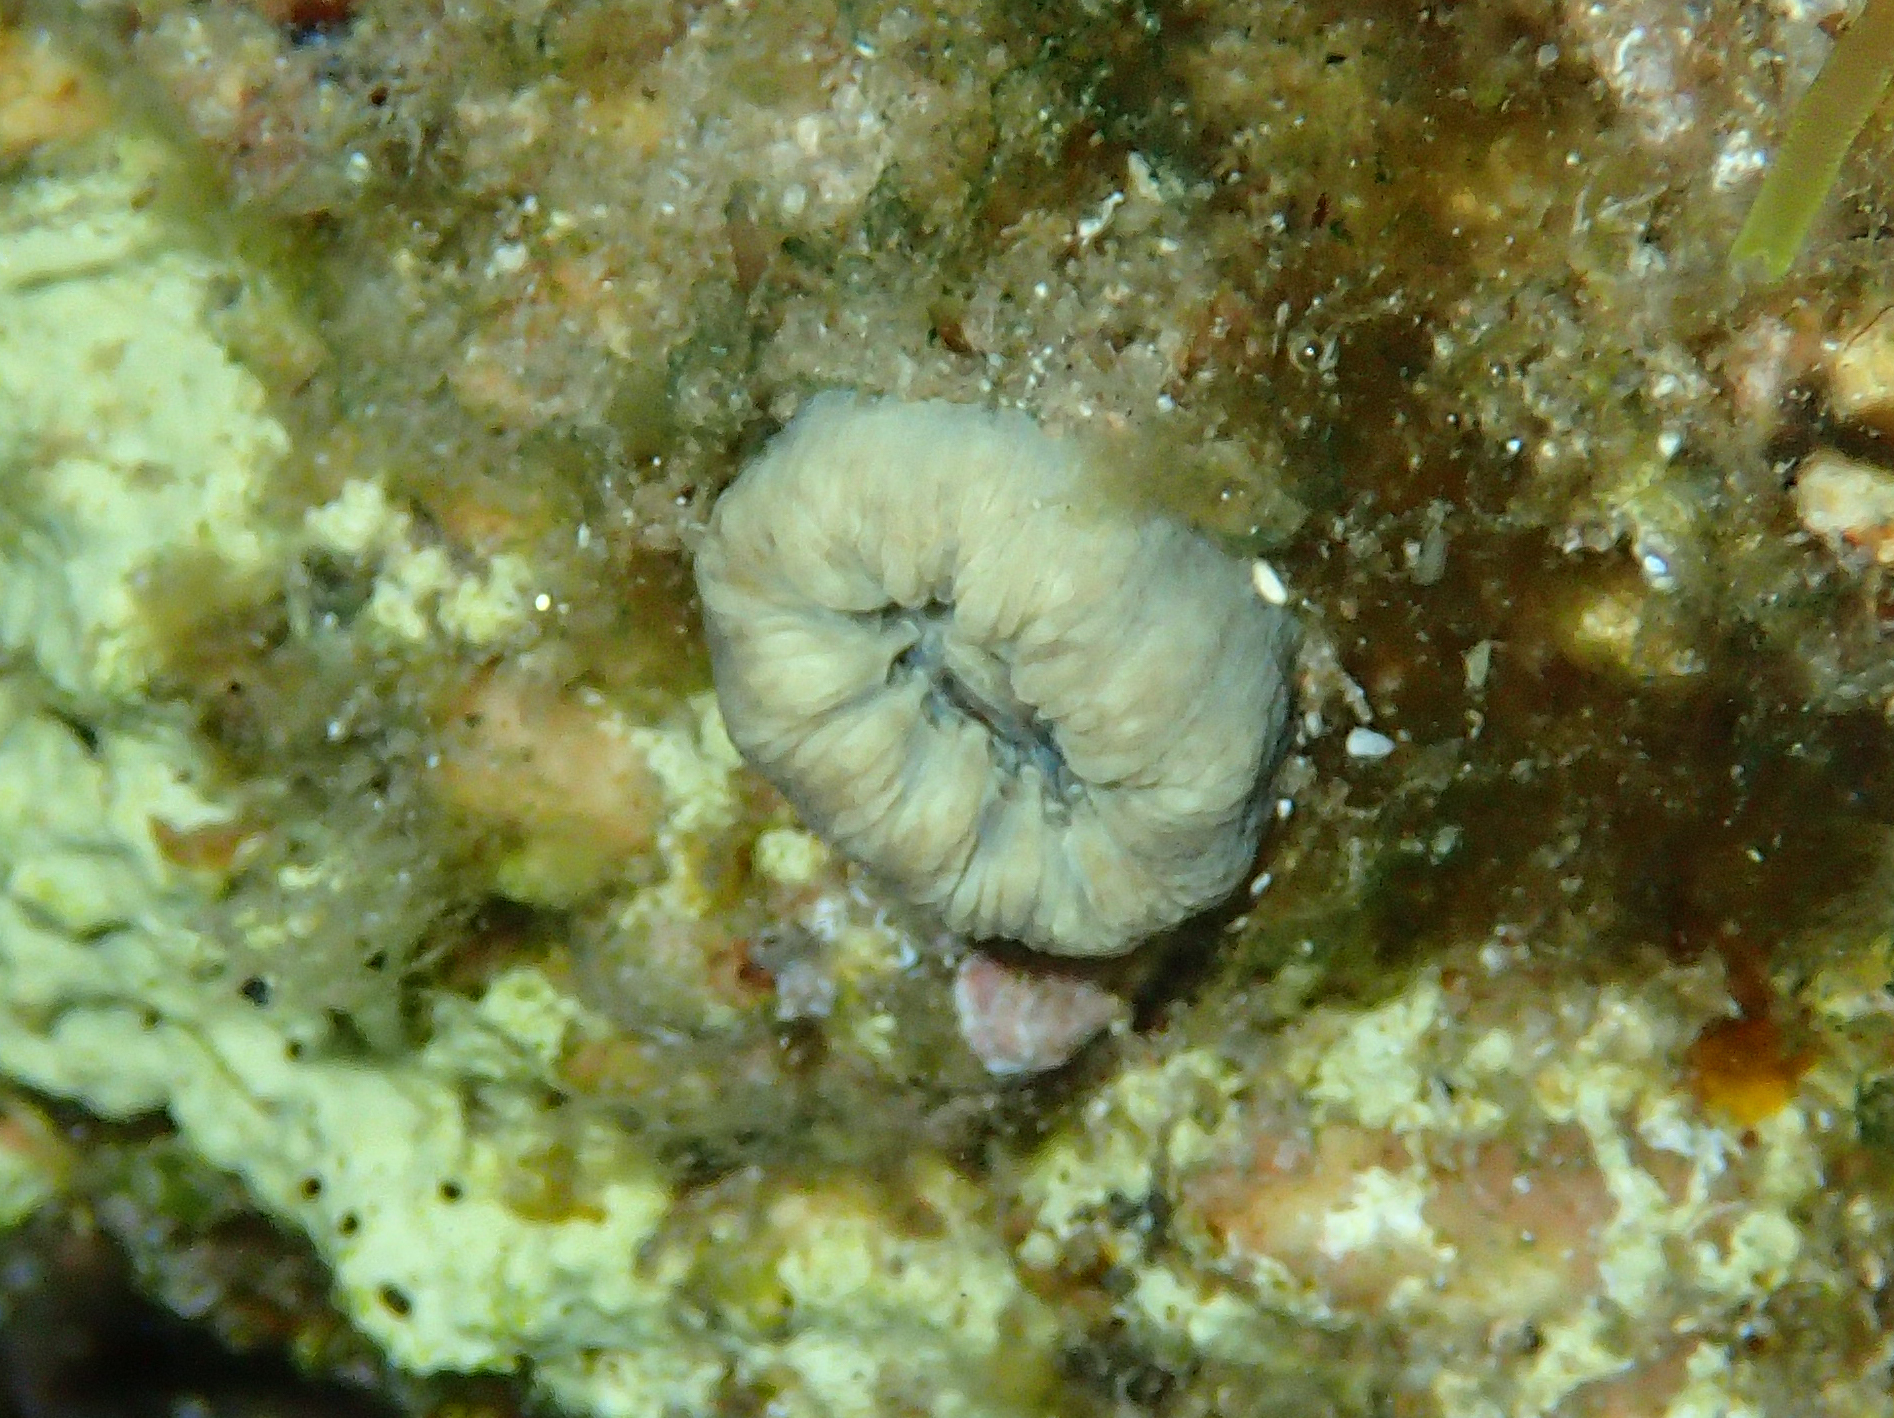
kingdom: Animalia
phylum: Cnidaria
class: Anthozoa
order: Scleractinia
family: Dendrophylliidae
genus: Balanophyllia
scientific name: Balanophyllia europaea
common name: Scarlet coral
